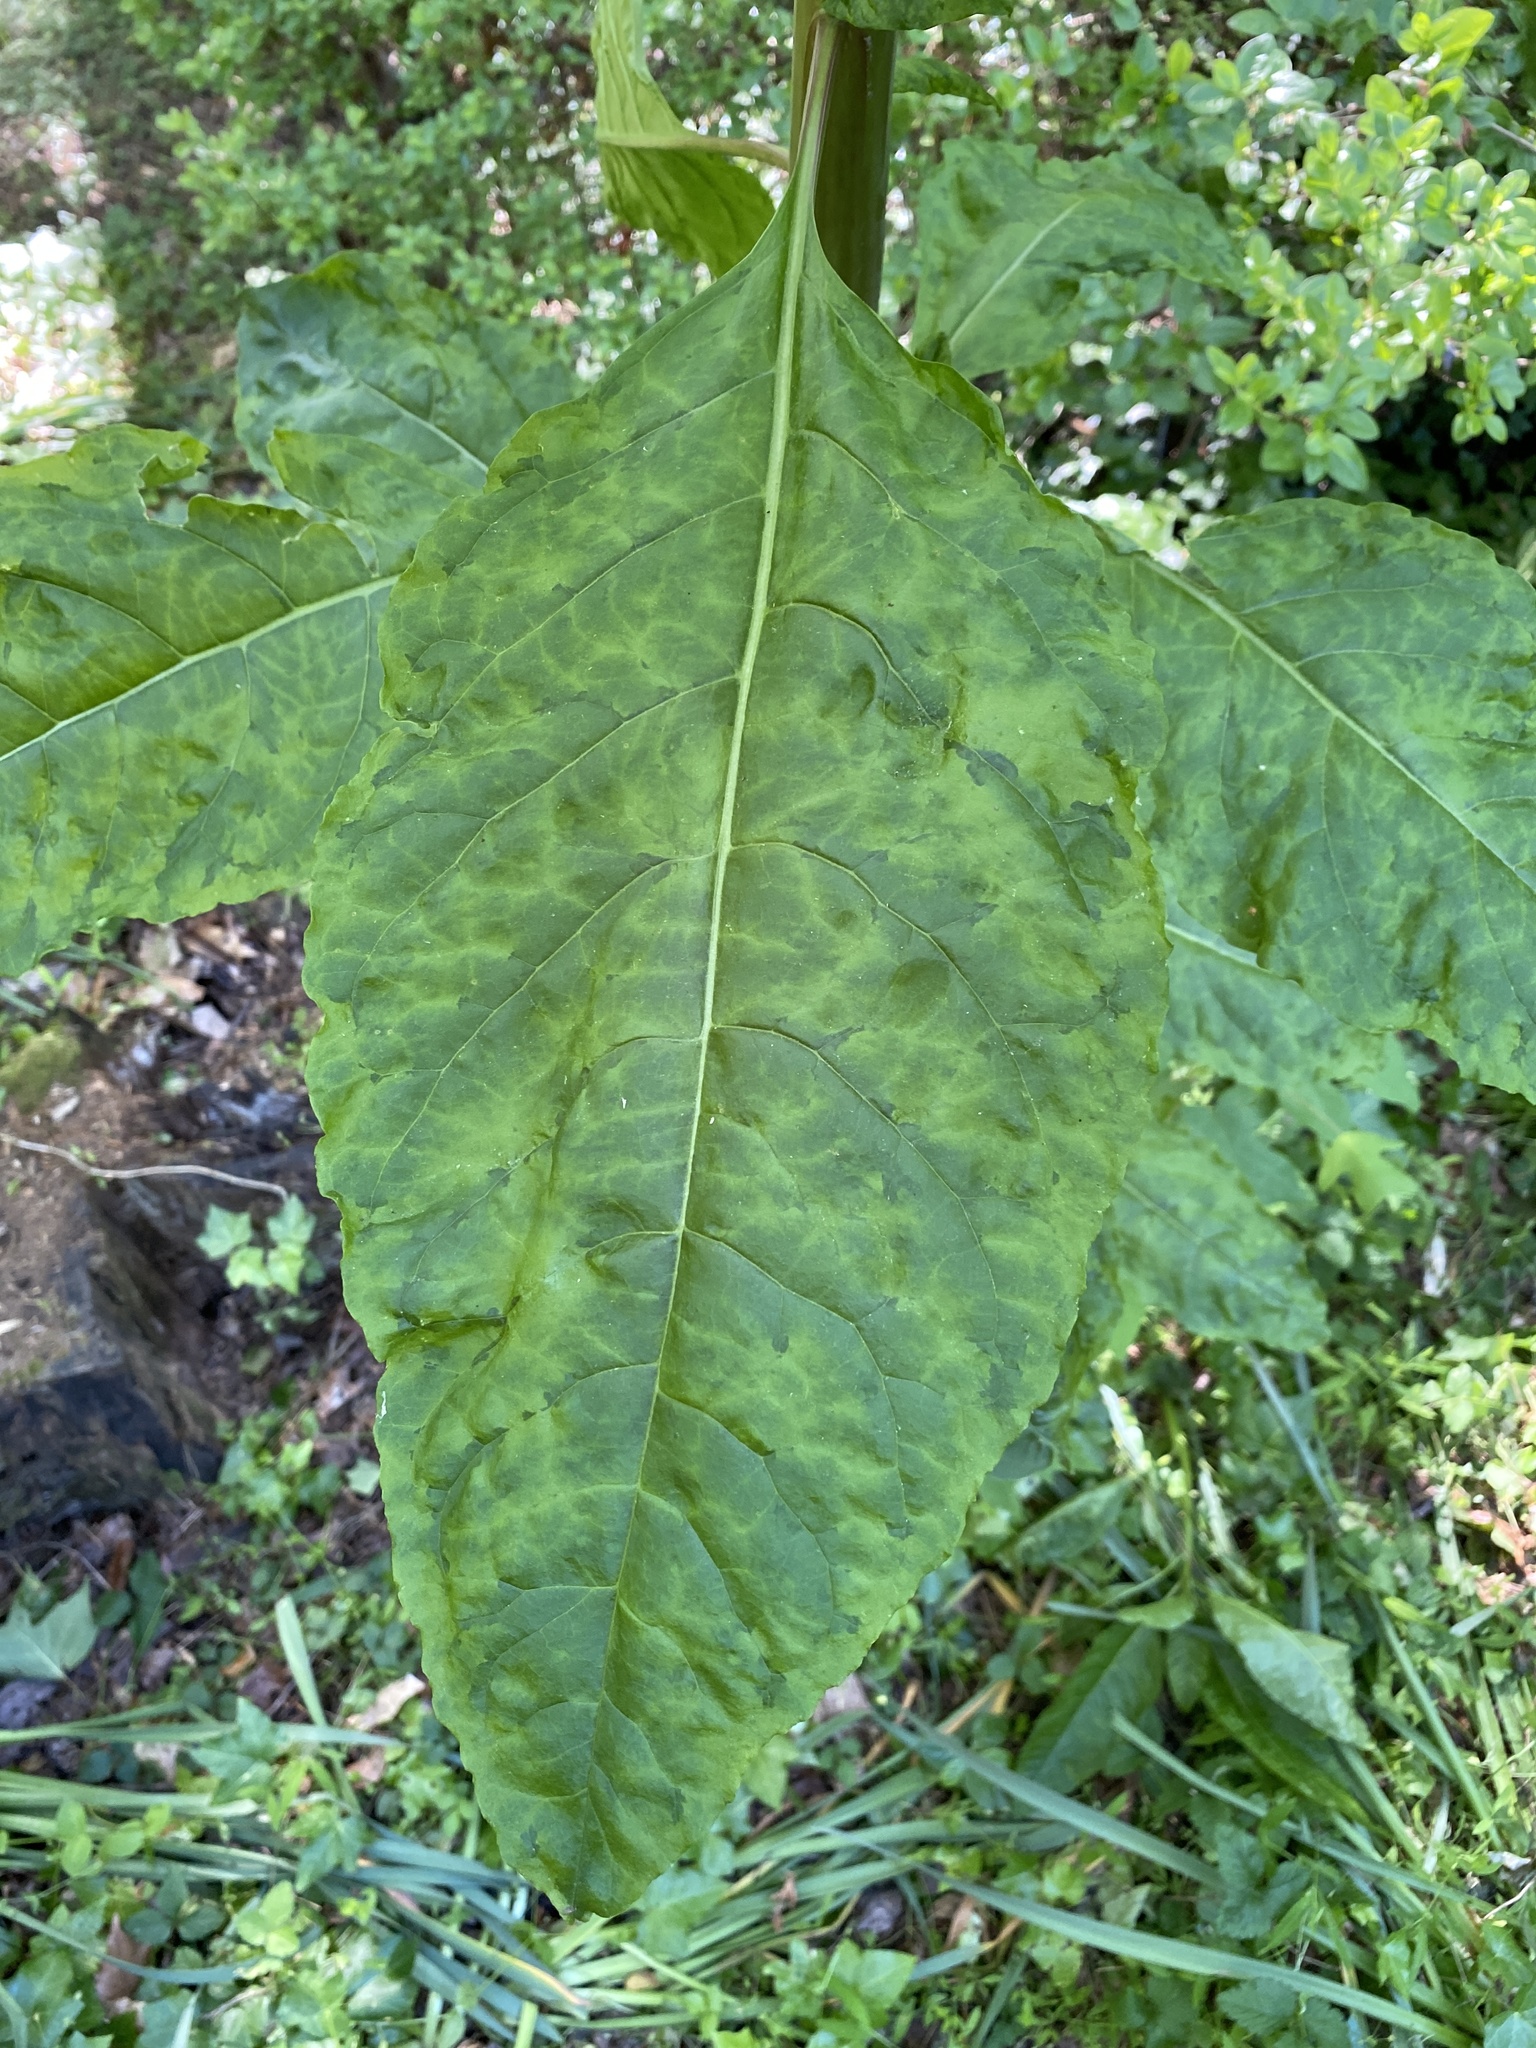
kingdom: Plantae
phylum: Tracheophyta
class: Magnoliopsida
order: Caryophyllales
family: Phytolaccaceae
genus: Phytolacca
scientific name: Phytolacca americana
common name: American pokeweed
